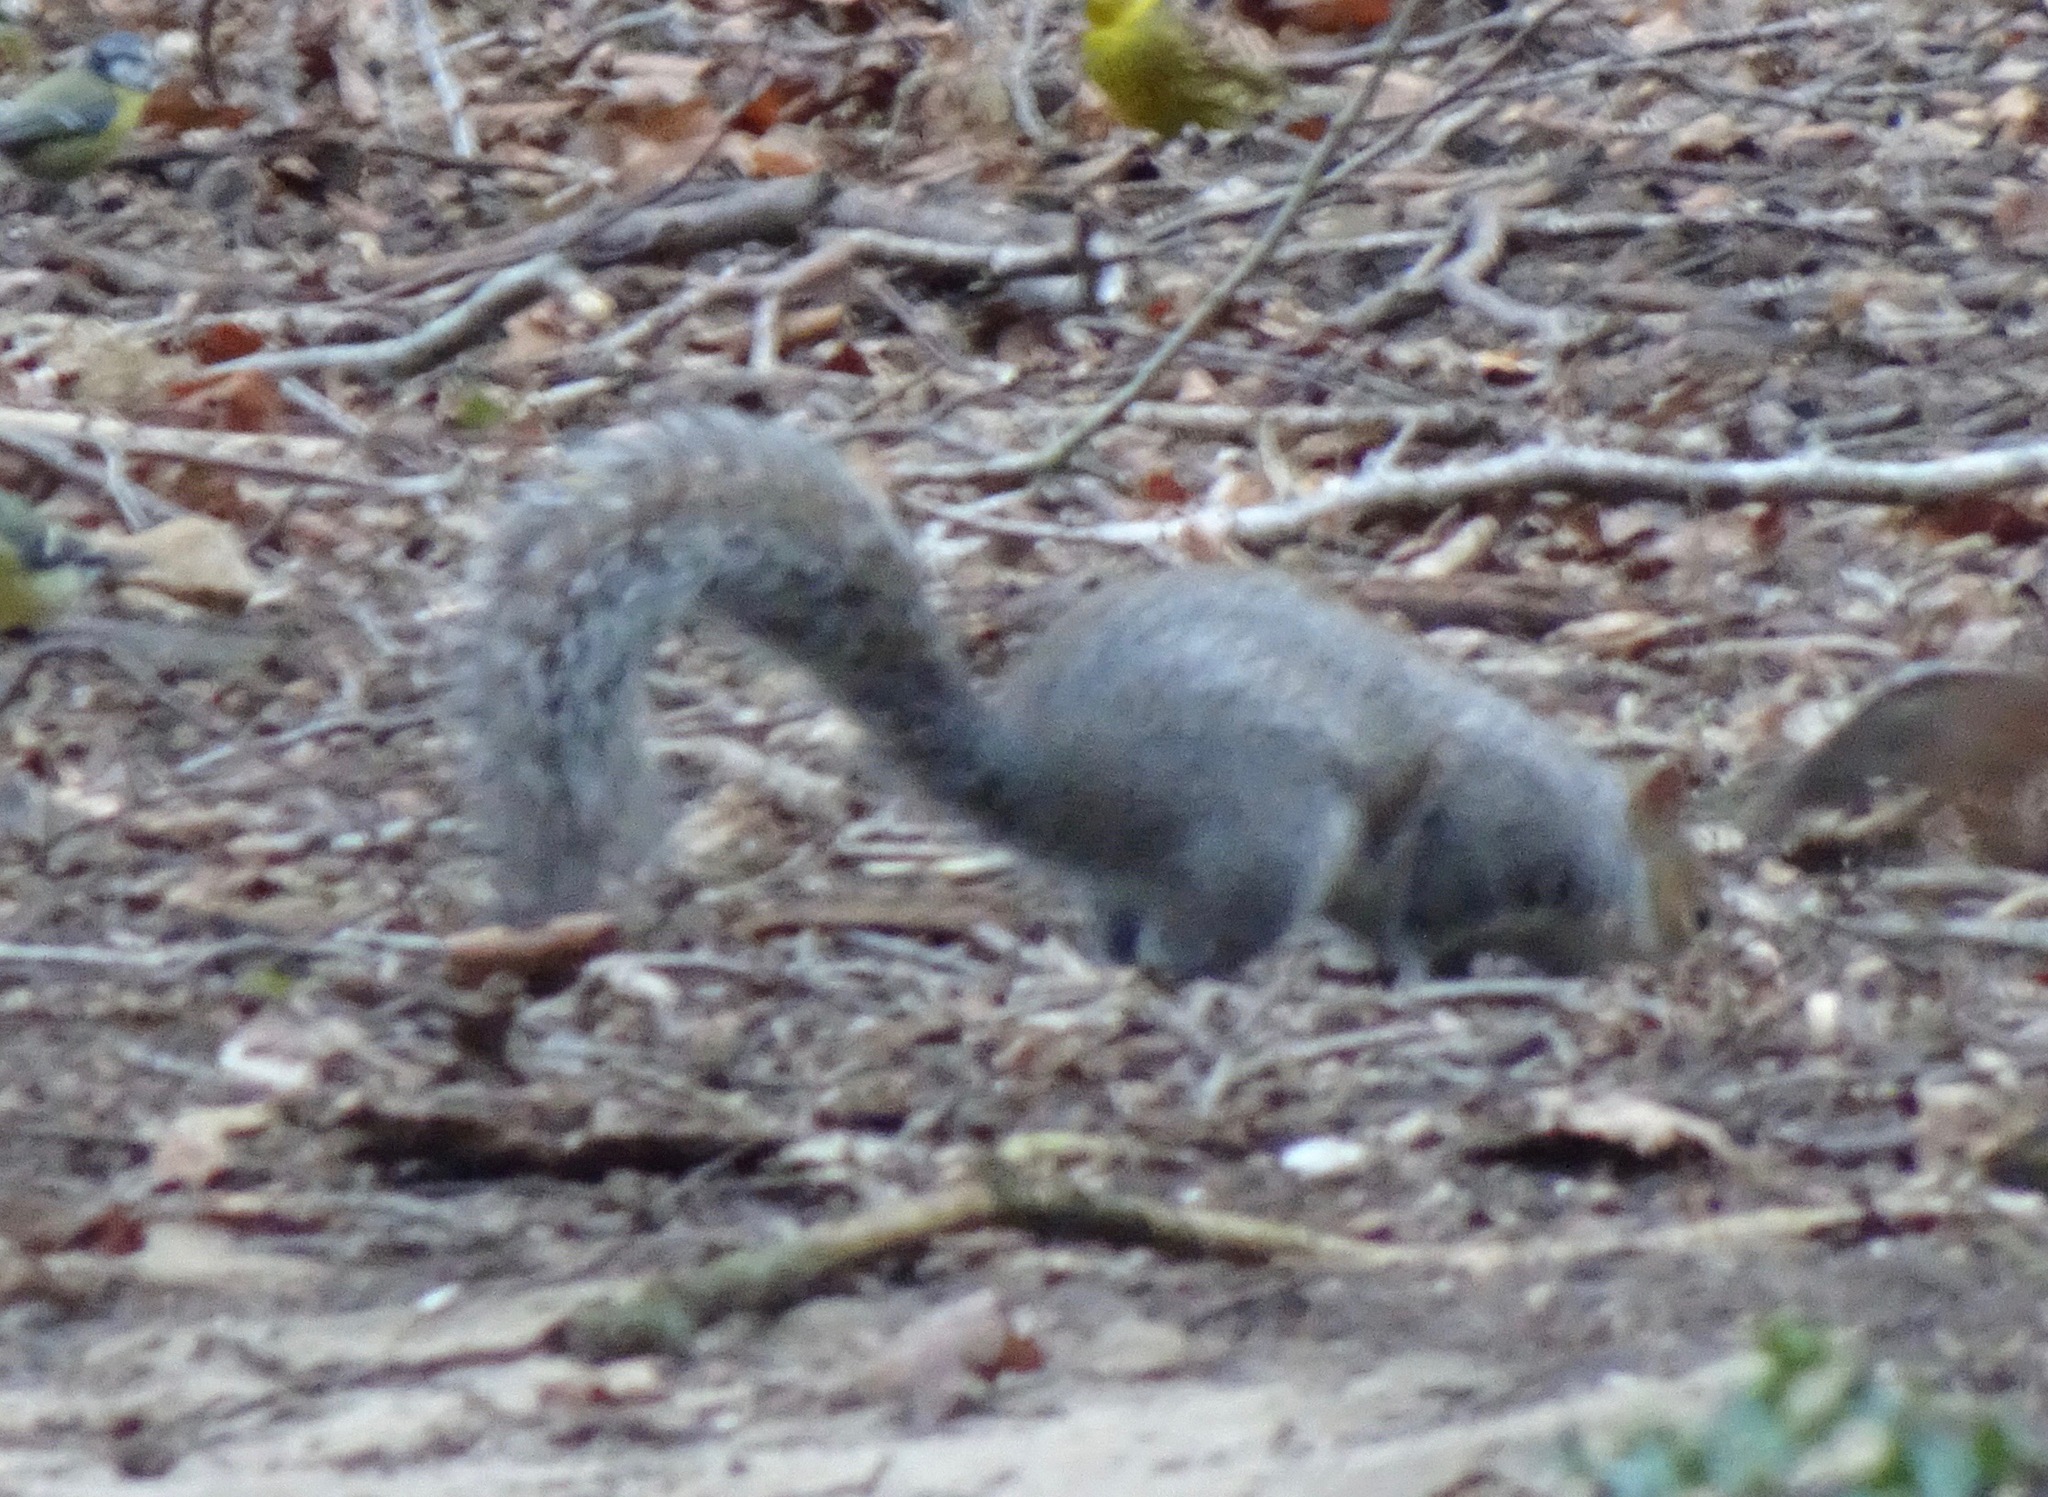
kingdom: Animalia
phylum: Chordata
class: Mammalia
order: Rodentia
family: Sciuridae
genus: Sciurus
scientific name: Sciurus carolinensis
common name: Eastern gray squirrel
